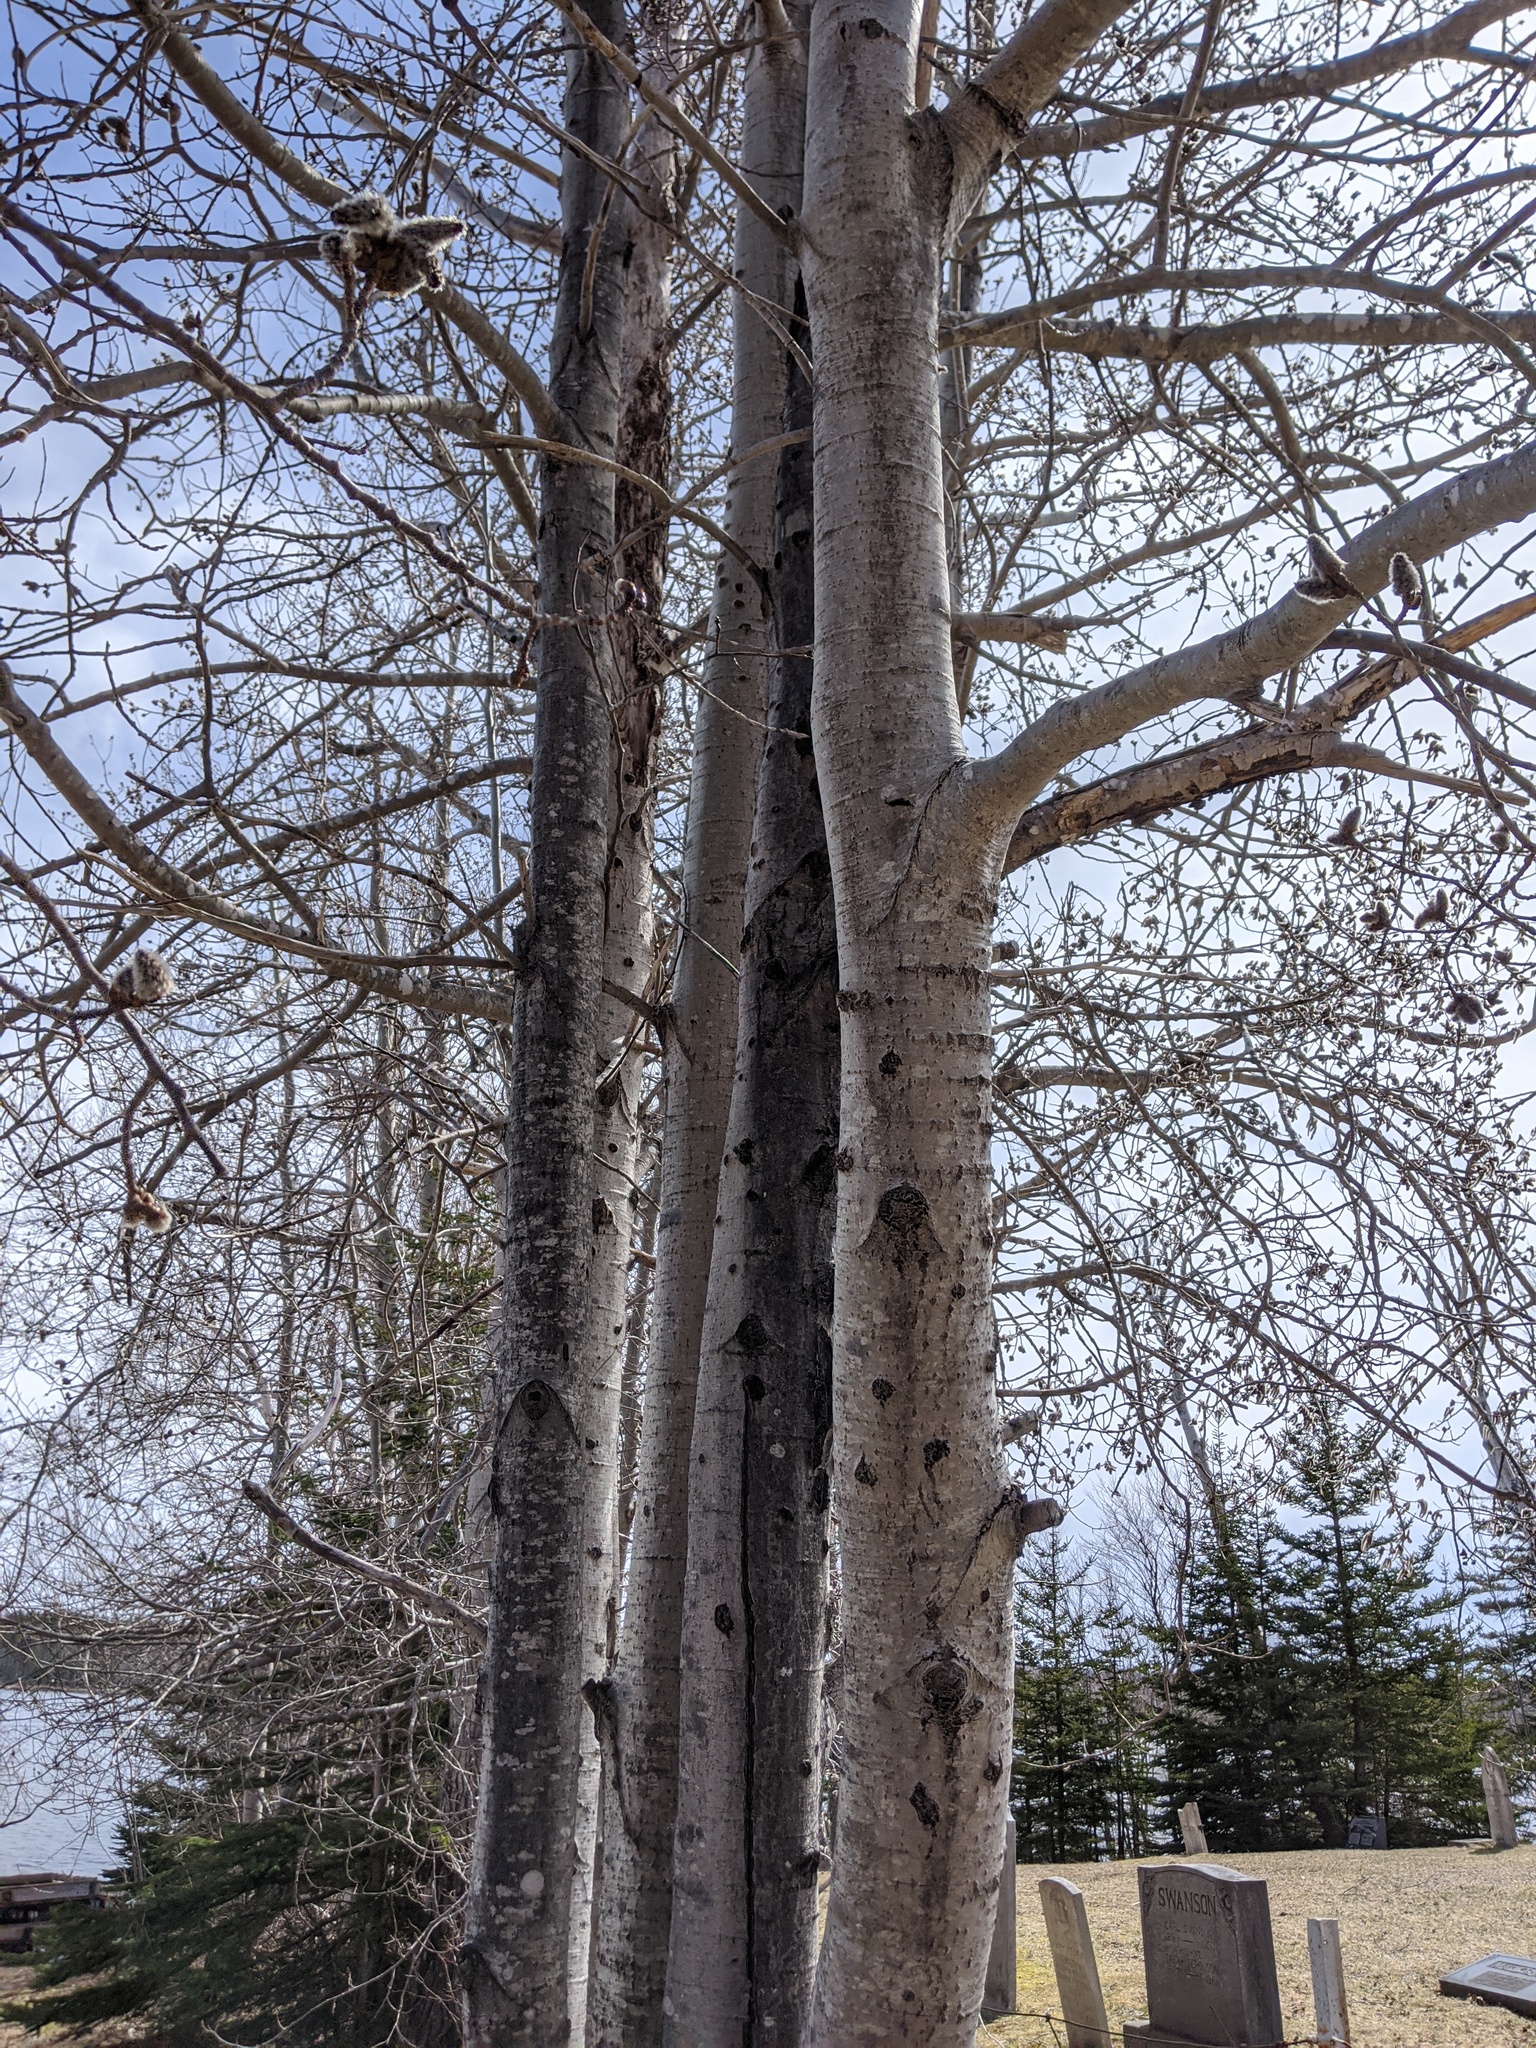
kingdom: Plantae
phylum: Tracheophyta
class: Magnoliopsida
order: Malpighiales
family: Salicaceae
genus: Populus
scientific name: Populus tremuloides
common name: Quaking aspen
